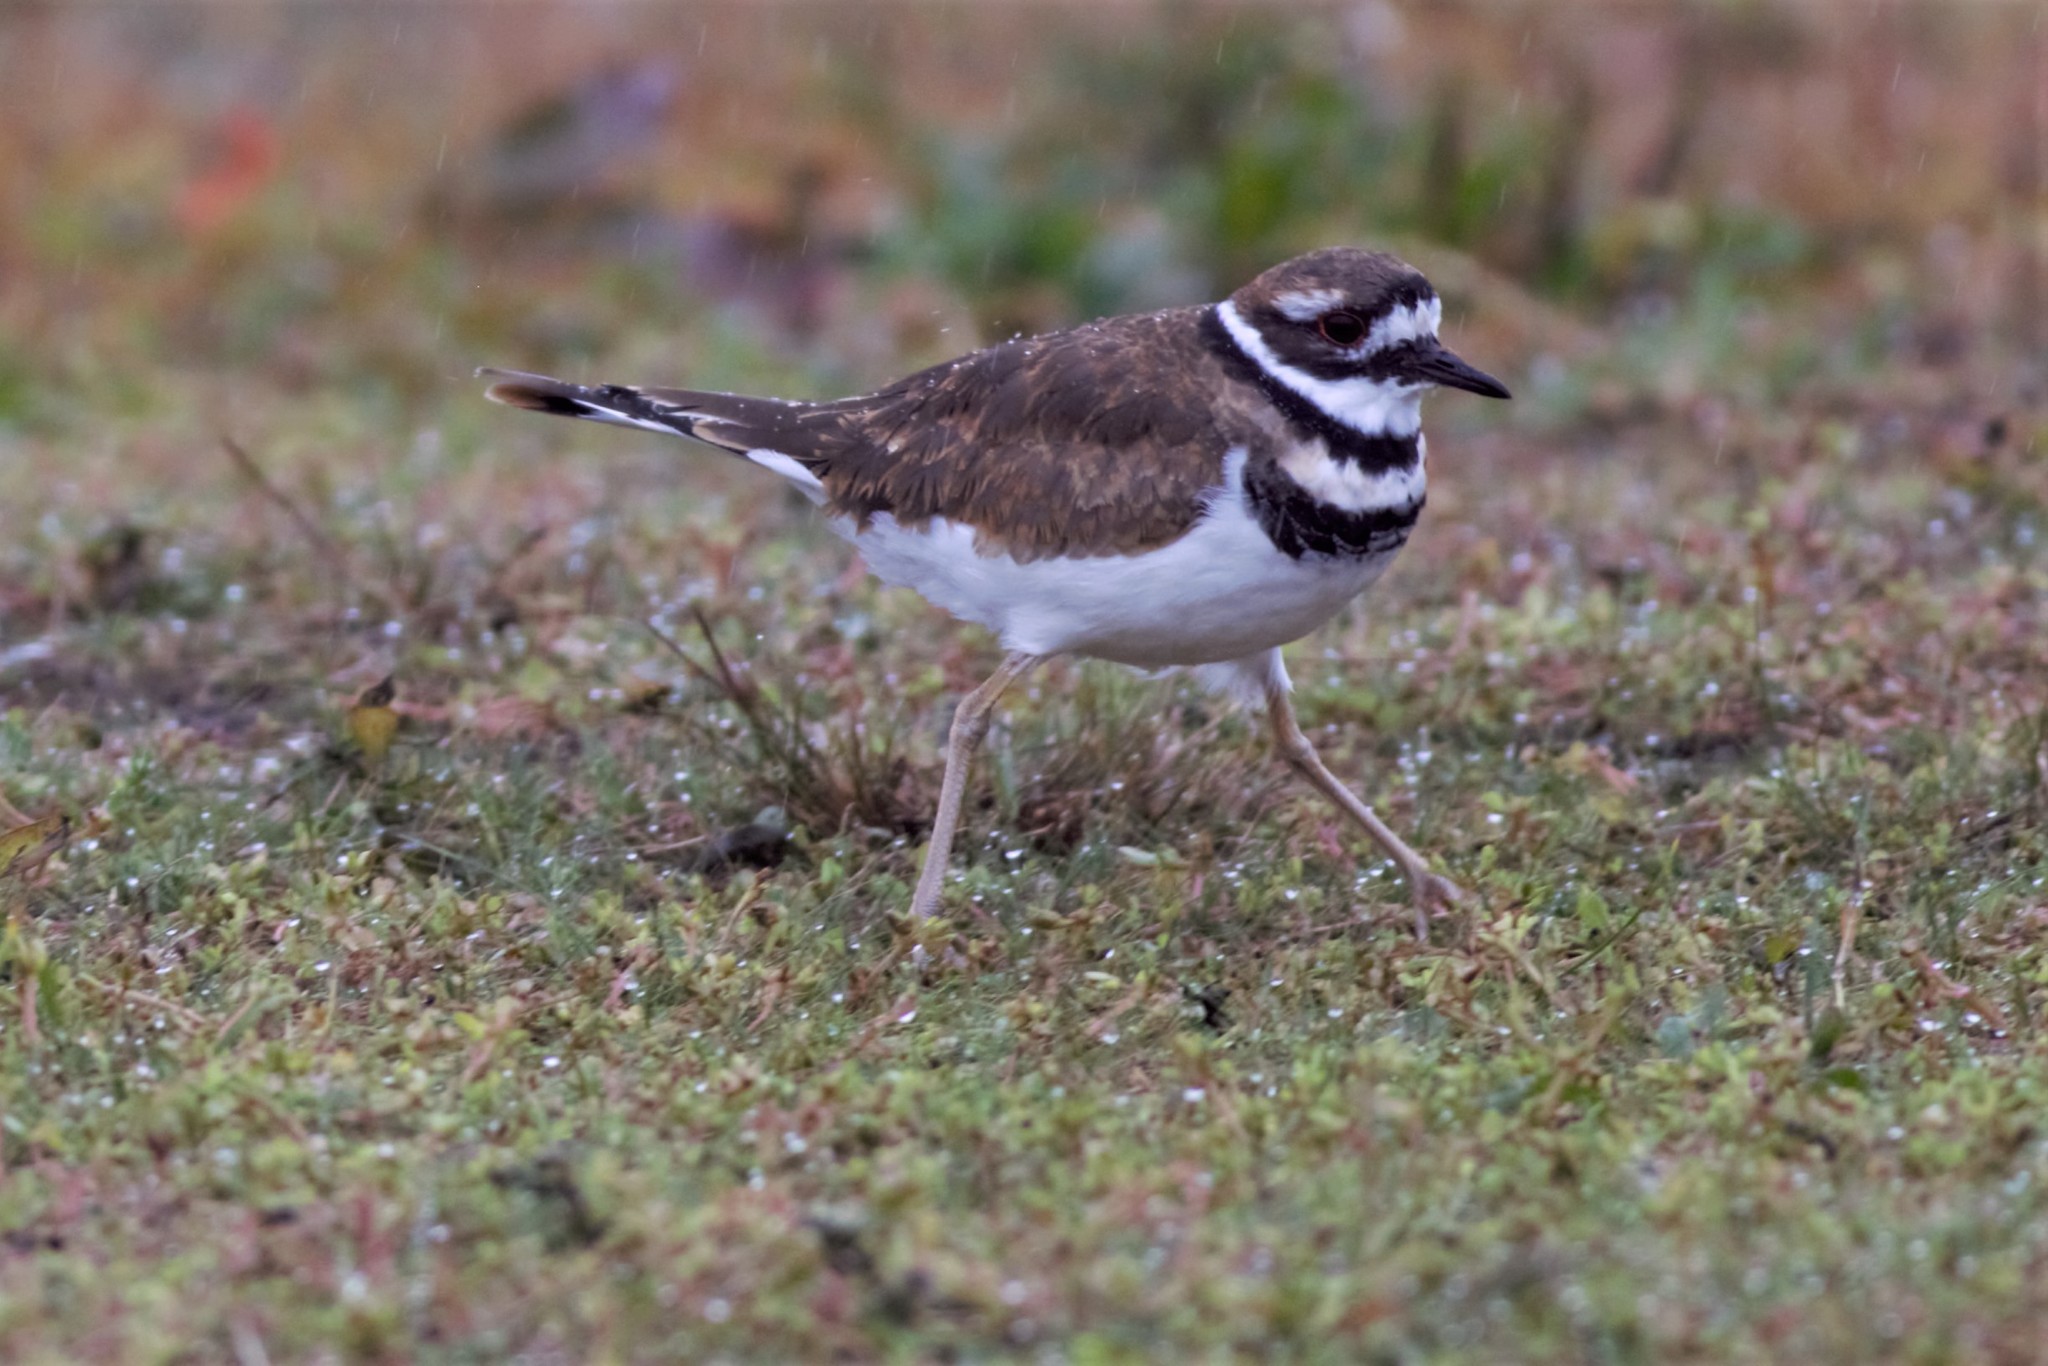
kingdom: Animalia
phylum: Chordata
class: Aves
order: Charadriiformes
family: Charadriidae
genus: Charadrius
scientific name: Charadrius vociferus
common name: Killdeer
